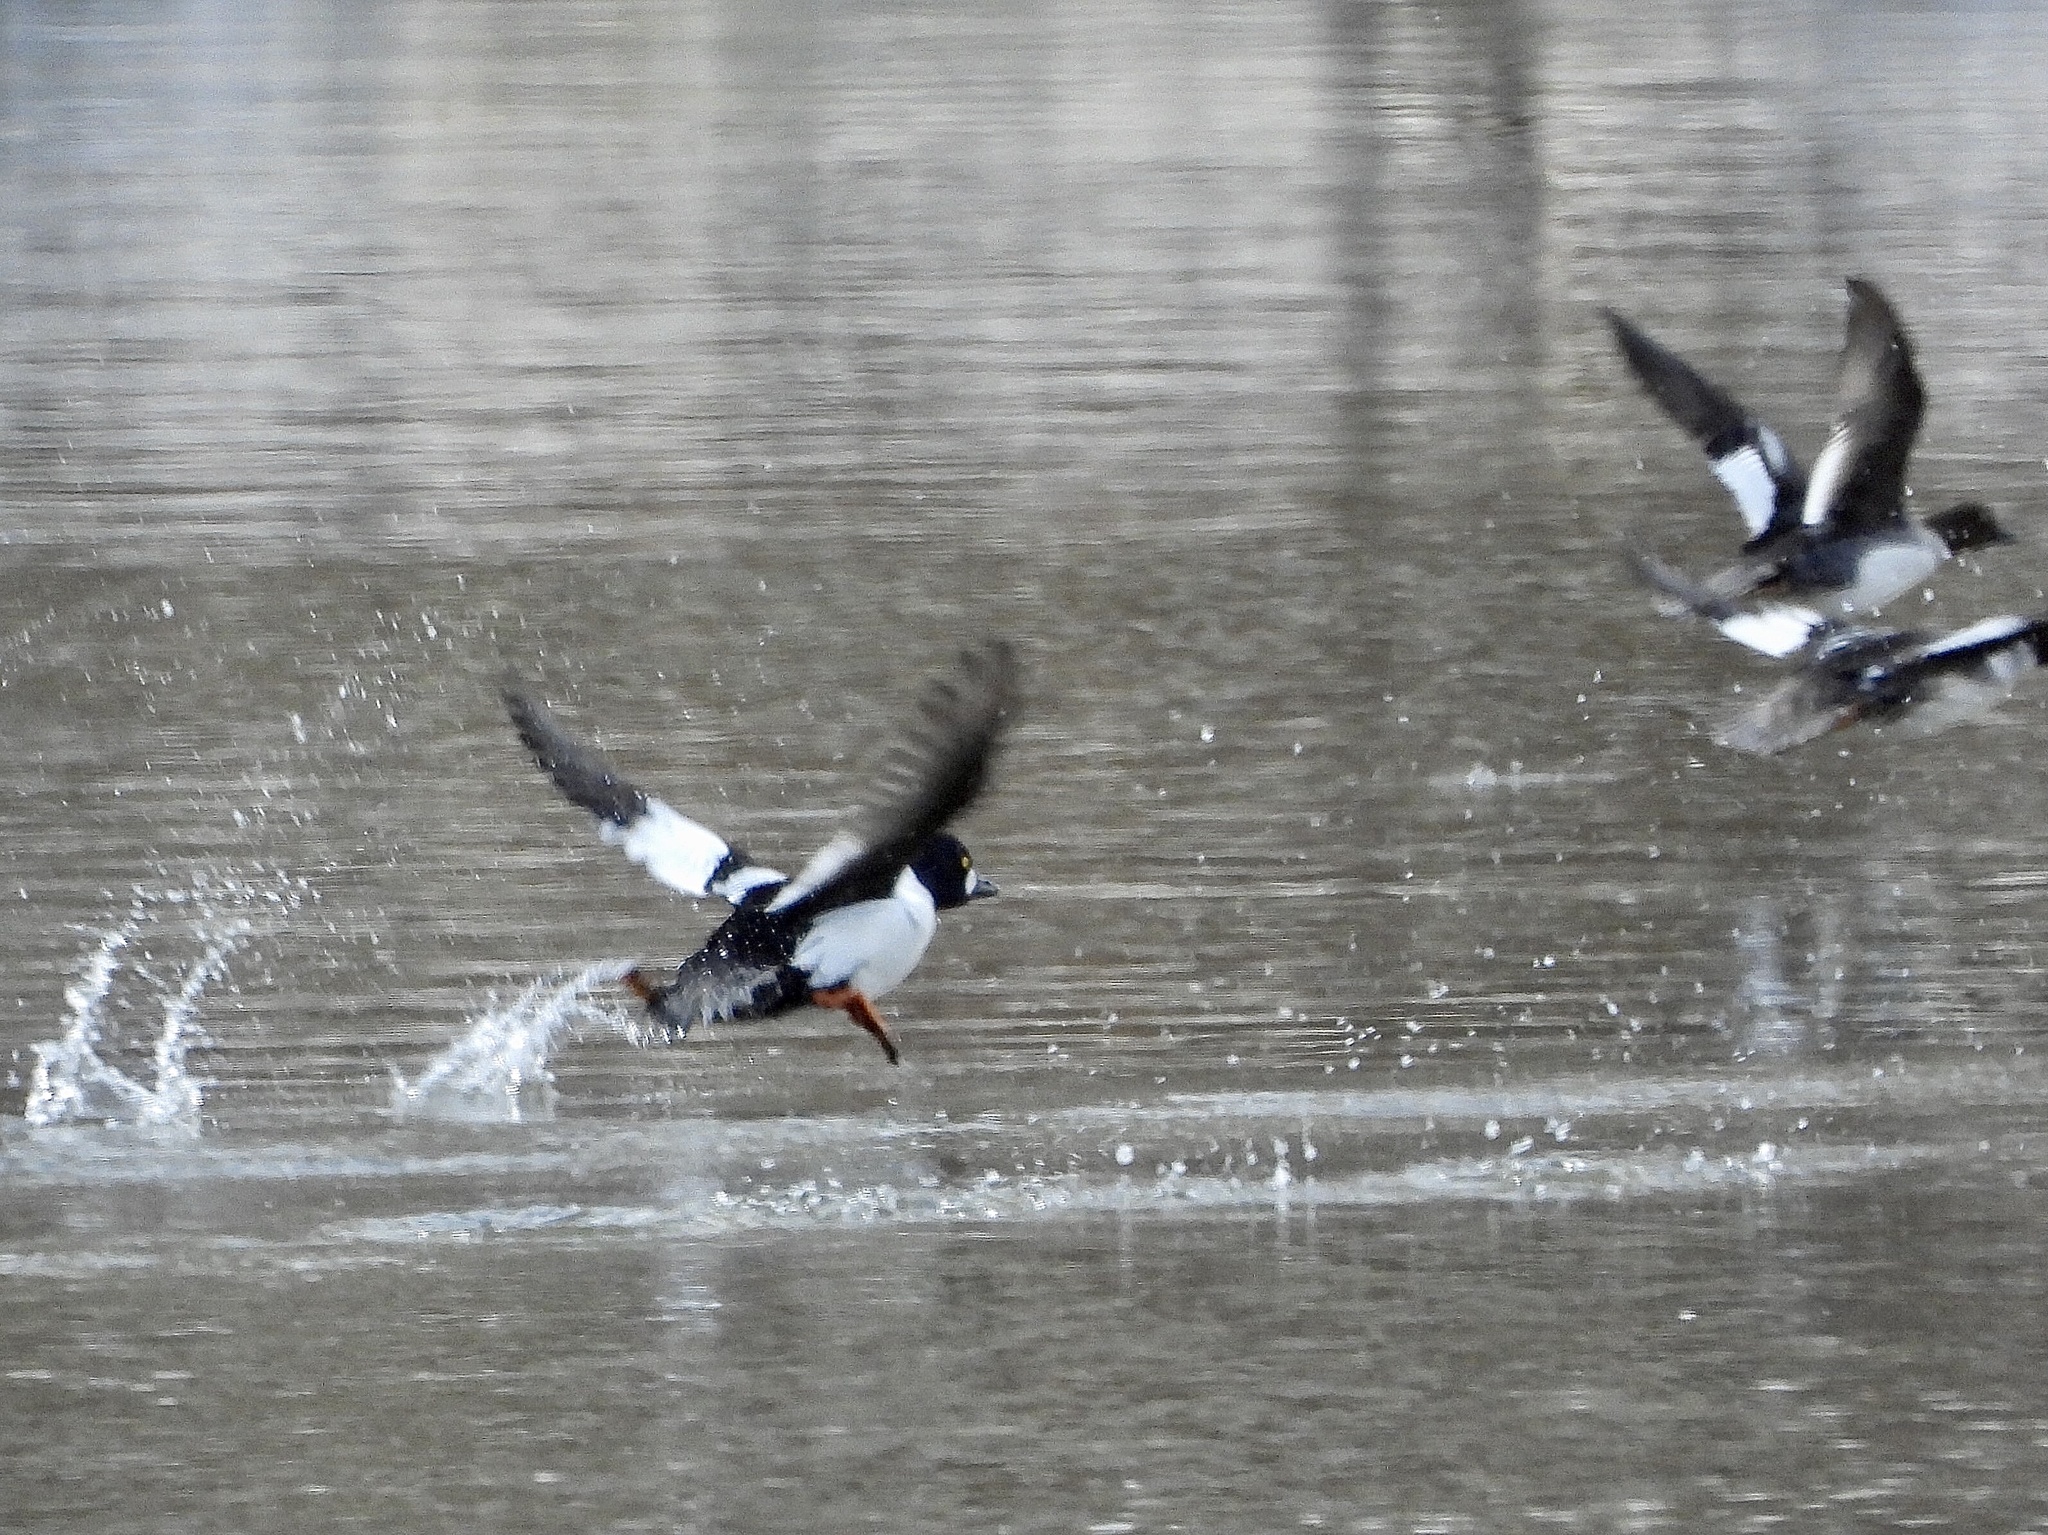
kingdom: Animalia
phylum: Chordata
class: Aves
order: Anseriformes
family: Anatidae
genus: Bucephala
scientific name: Bucephala clangula
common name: Common goldeneye
